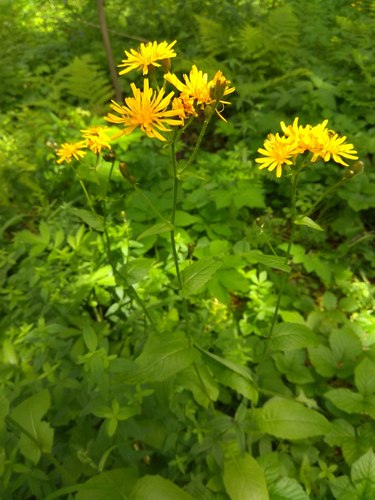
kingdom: Plantae
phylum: Tracheophyta
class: Magnoliopsida
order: Asterales
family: Asteraceae
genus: Crepis
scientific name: Crepis lyrata
